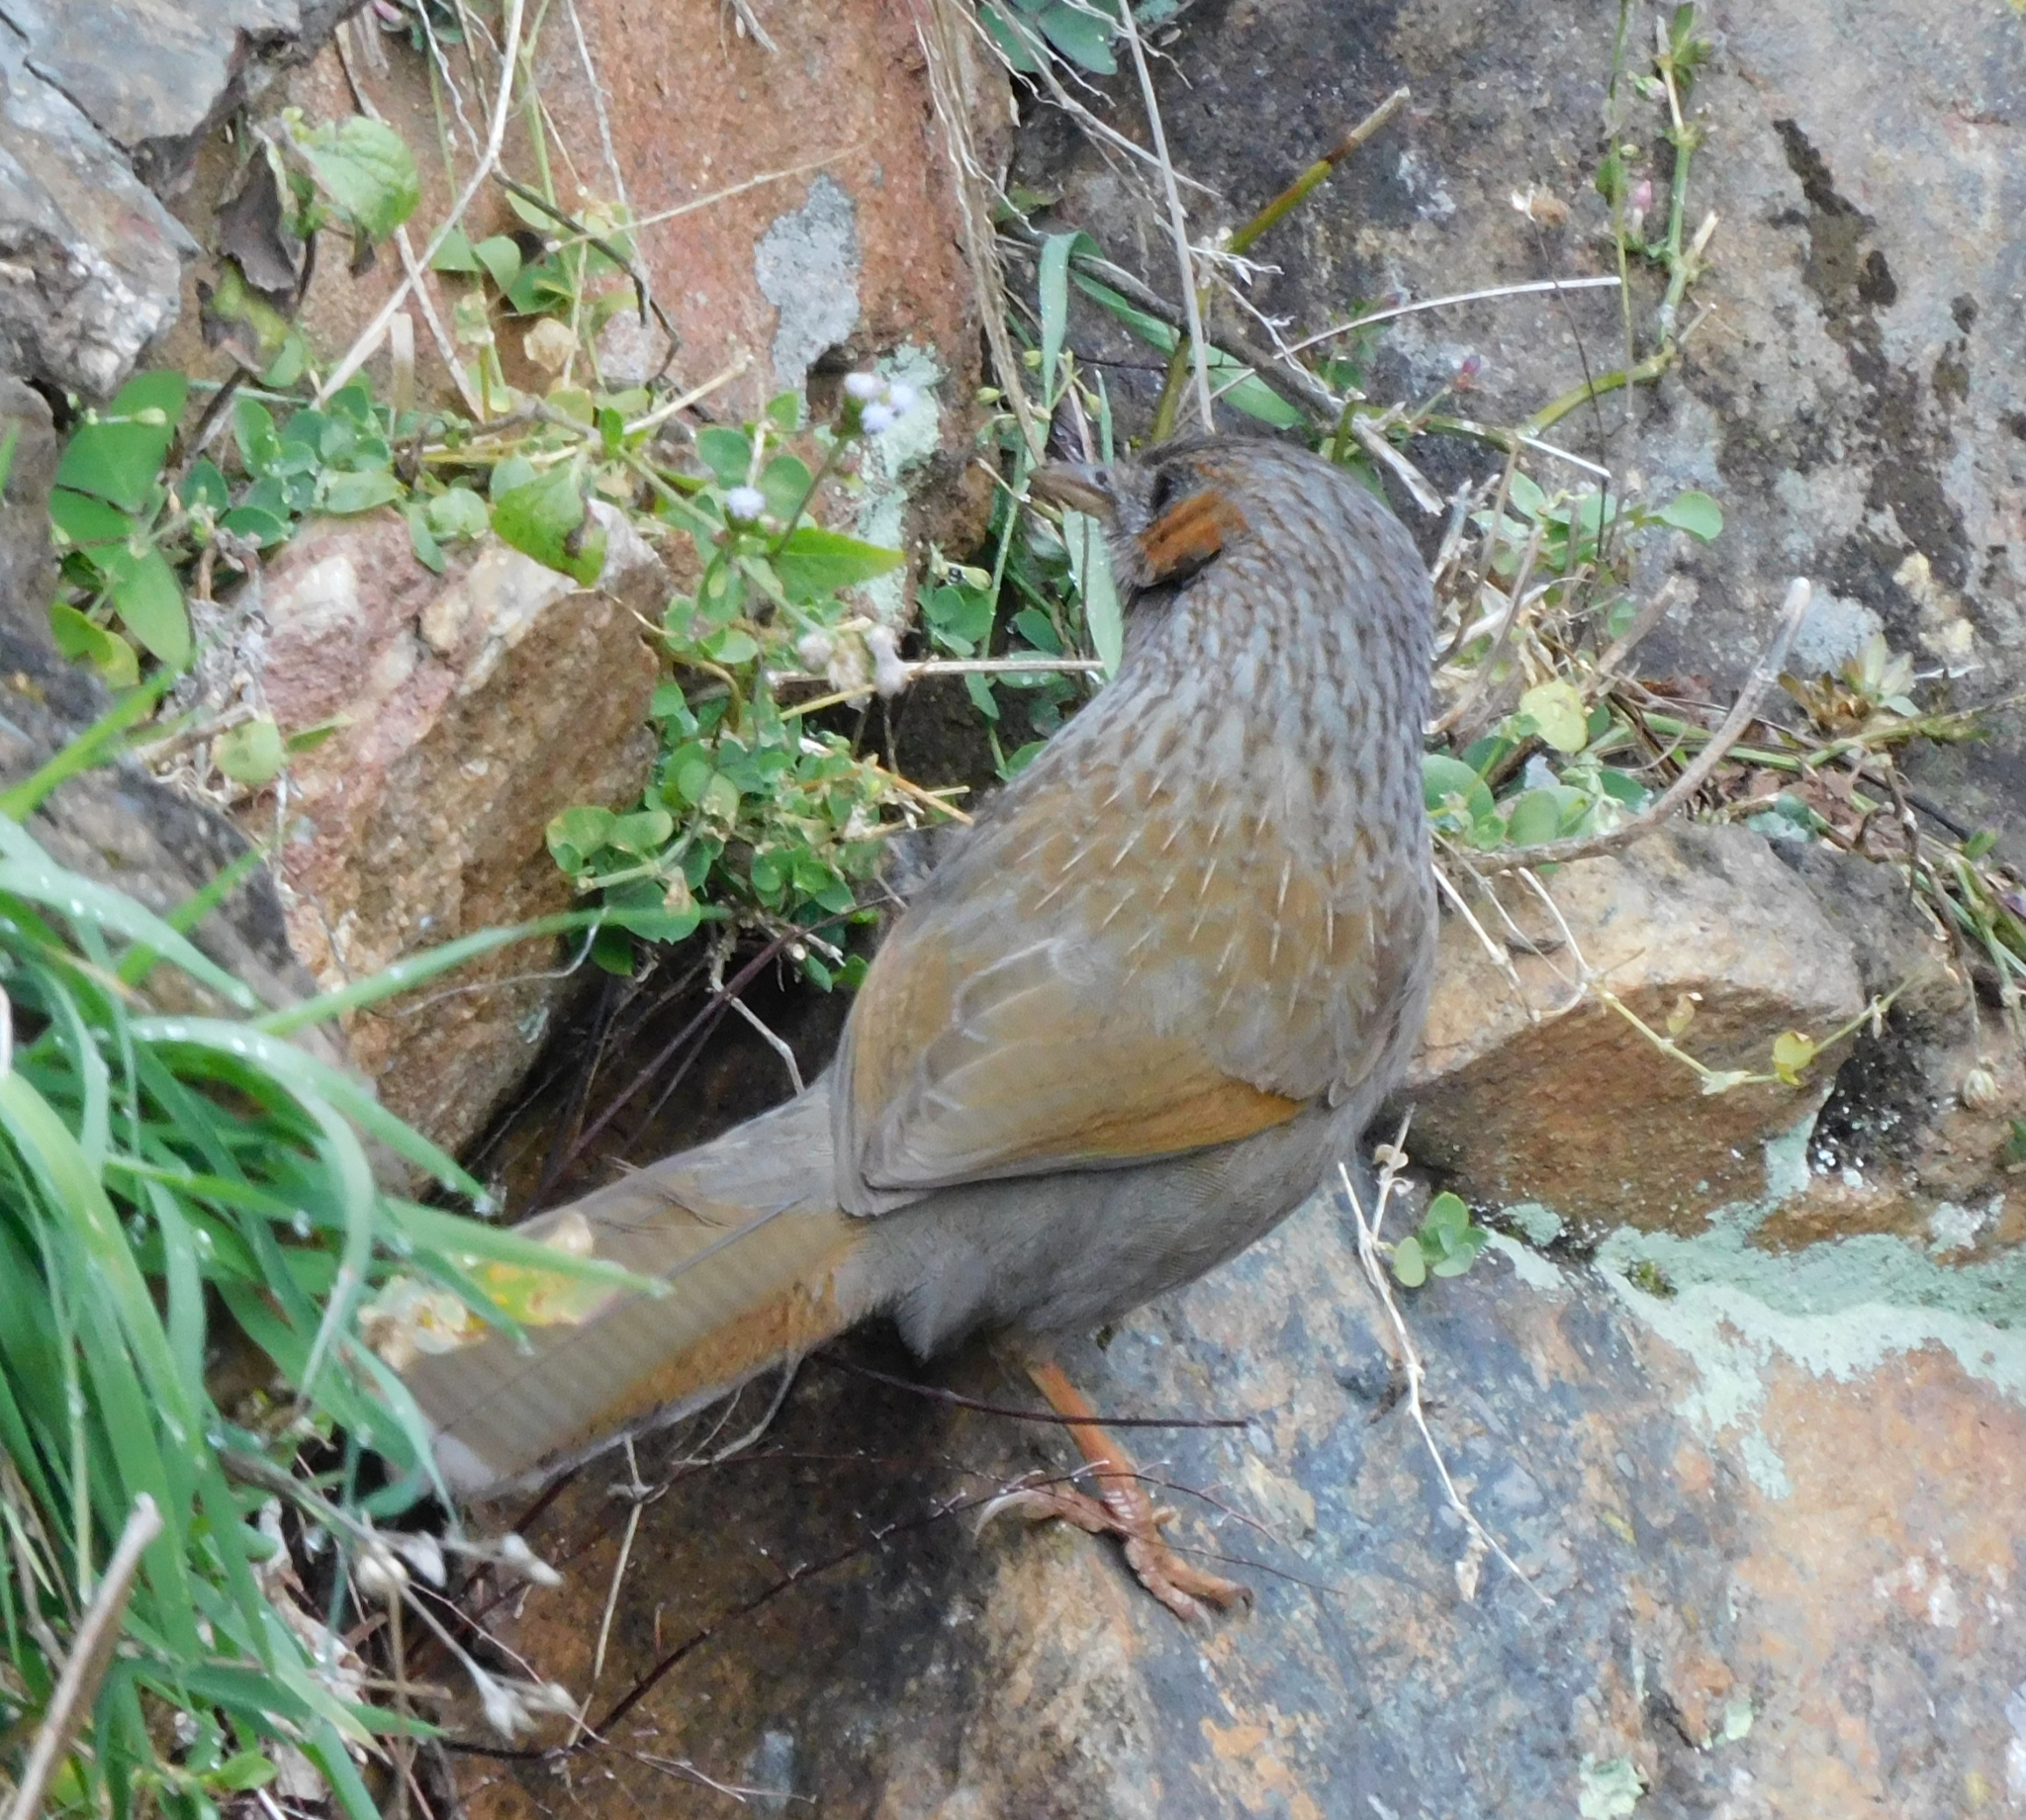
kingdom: Animalia
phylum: Chordata
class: Aves
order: Passeriformes
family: Leiothrichidae
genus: Trochalopteron
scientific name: Trochalopteron lineatum
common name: Streaked laughingthrush
